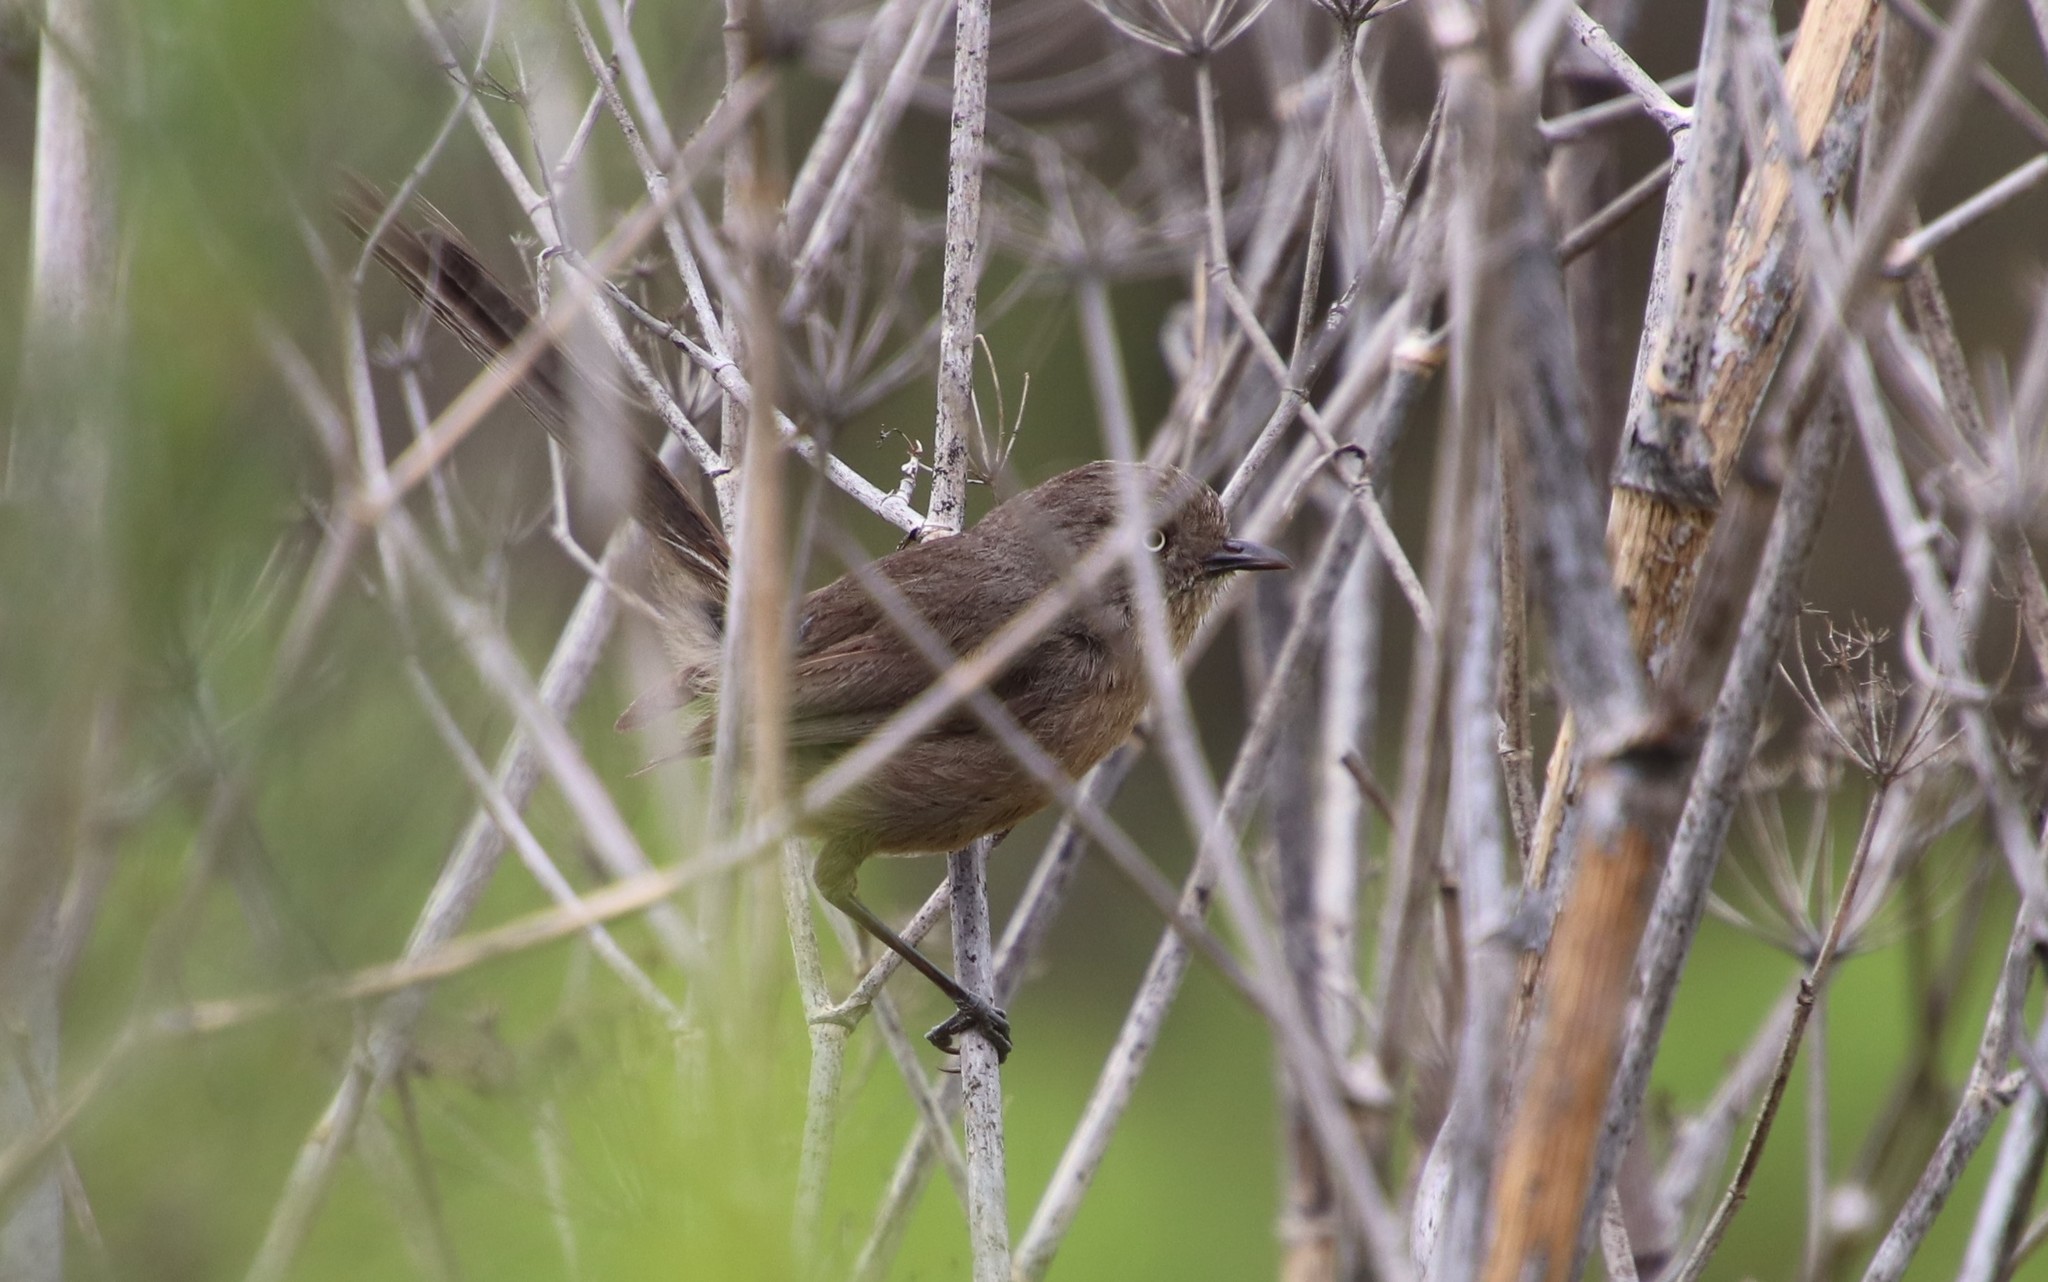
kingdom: Animalia
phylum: Chordata
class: Aves
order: Passeriformes
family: Sylviidae
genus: Chamaea
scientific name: Chamaea fasciata
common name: Wrentit
